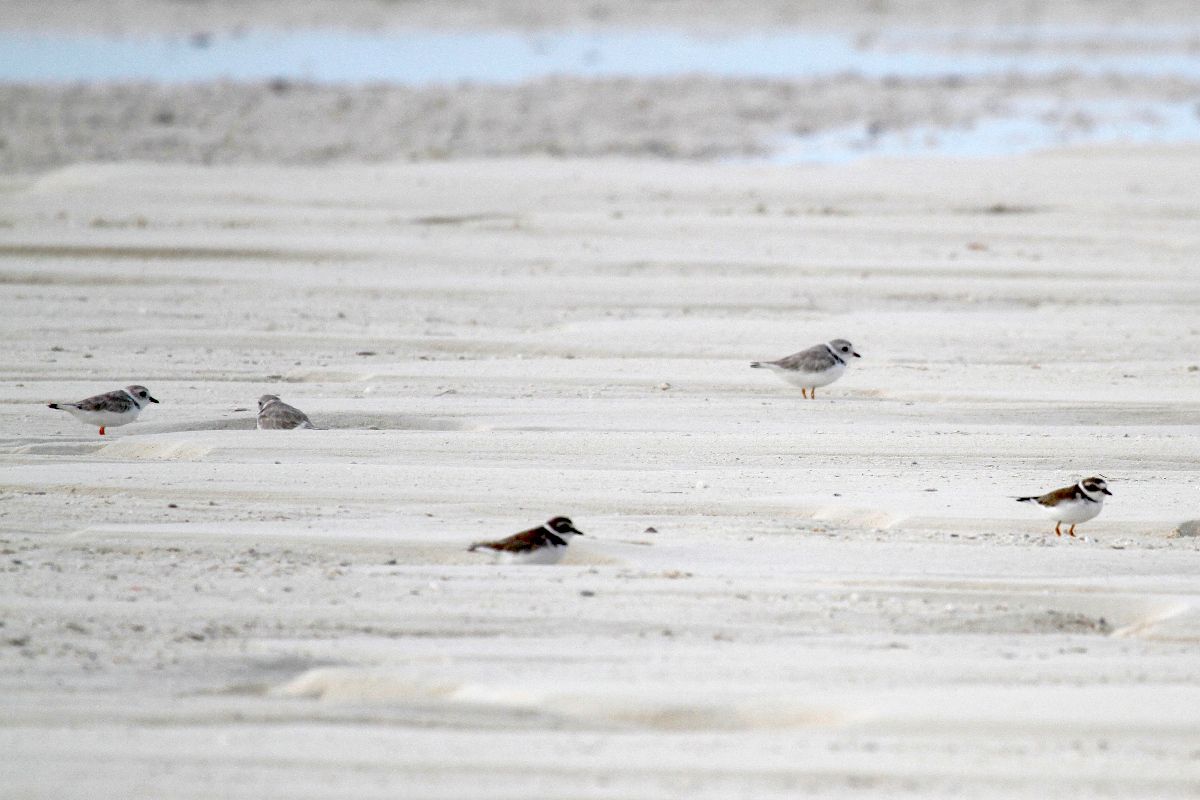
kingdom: Animalia
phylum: Chordata
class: Aves
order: Charadriiformes
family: Charadriidae
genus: Charadrius
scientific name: Charadrius semipalmatus
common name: Semipalmated plover
